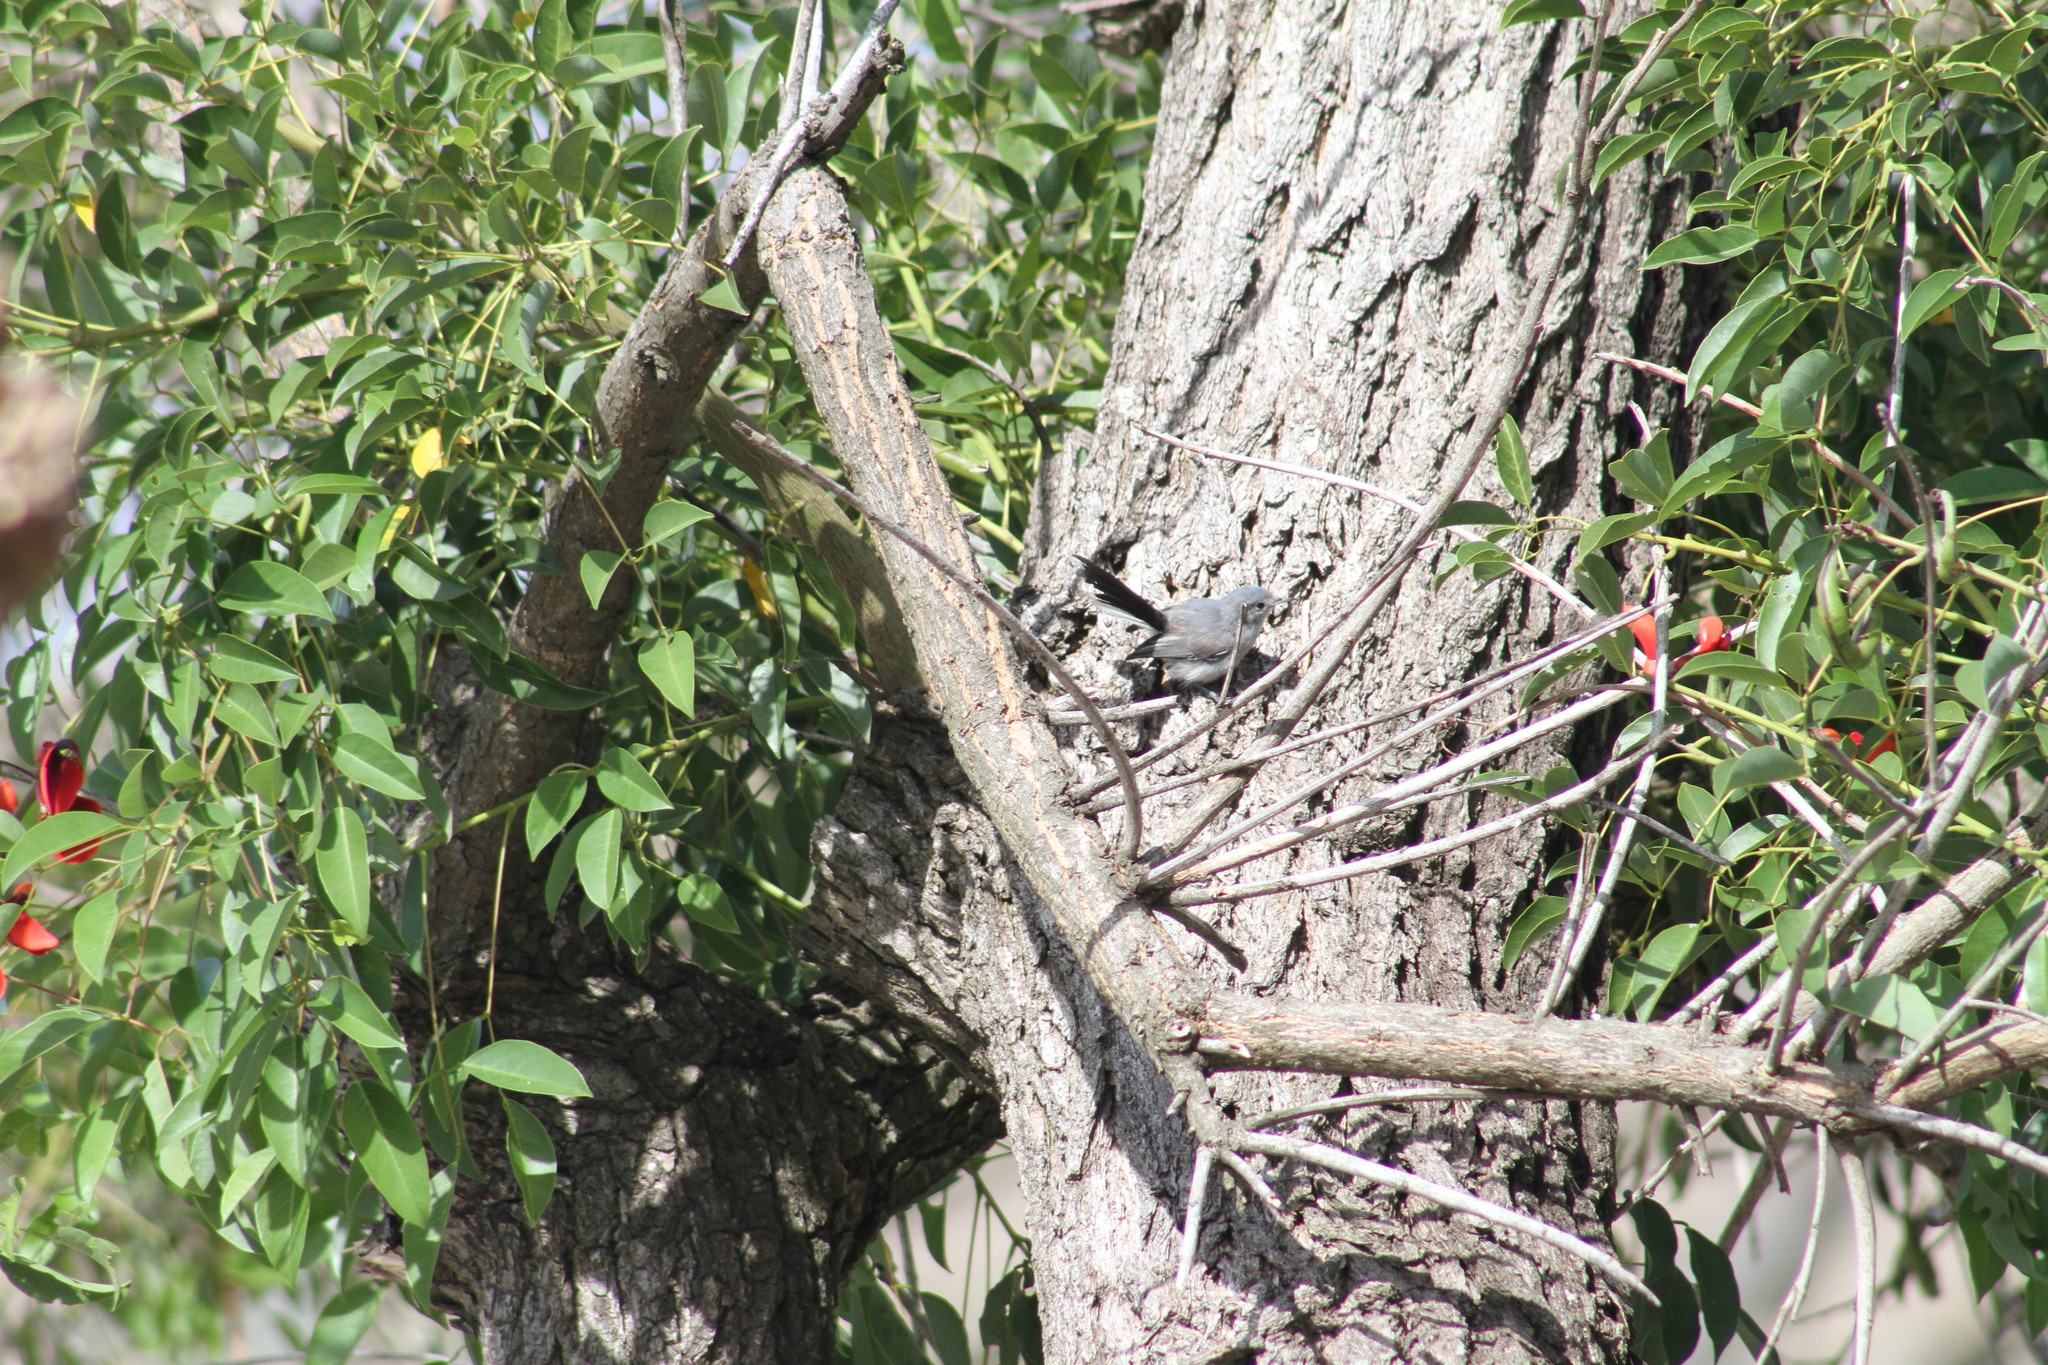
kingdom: Animalia
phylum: Chordata
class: Aves
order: Passeriformes
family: Polioptilidae
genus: Polioptila
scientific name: Polioptila dumicola
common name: Masked gnatcatcher
